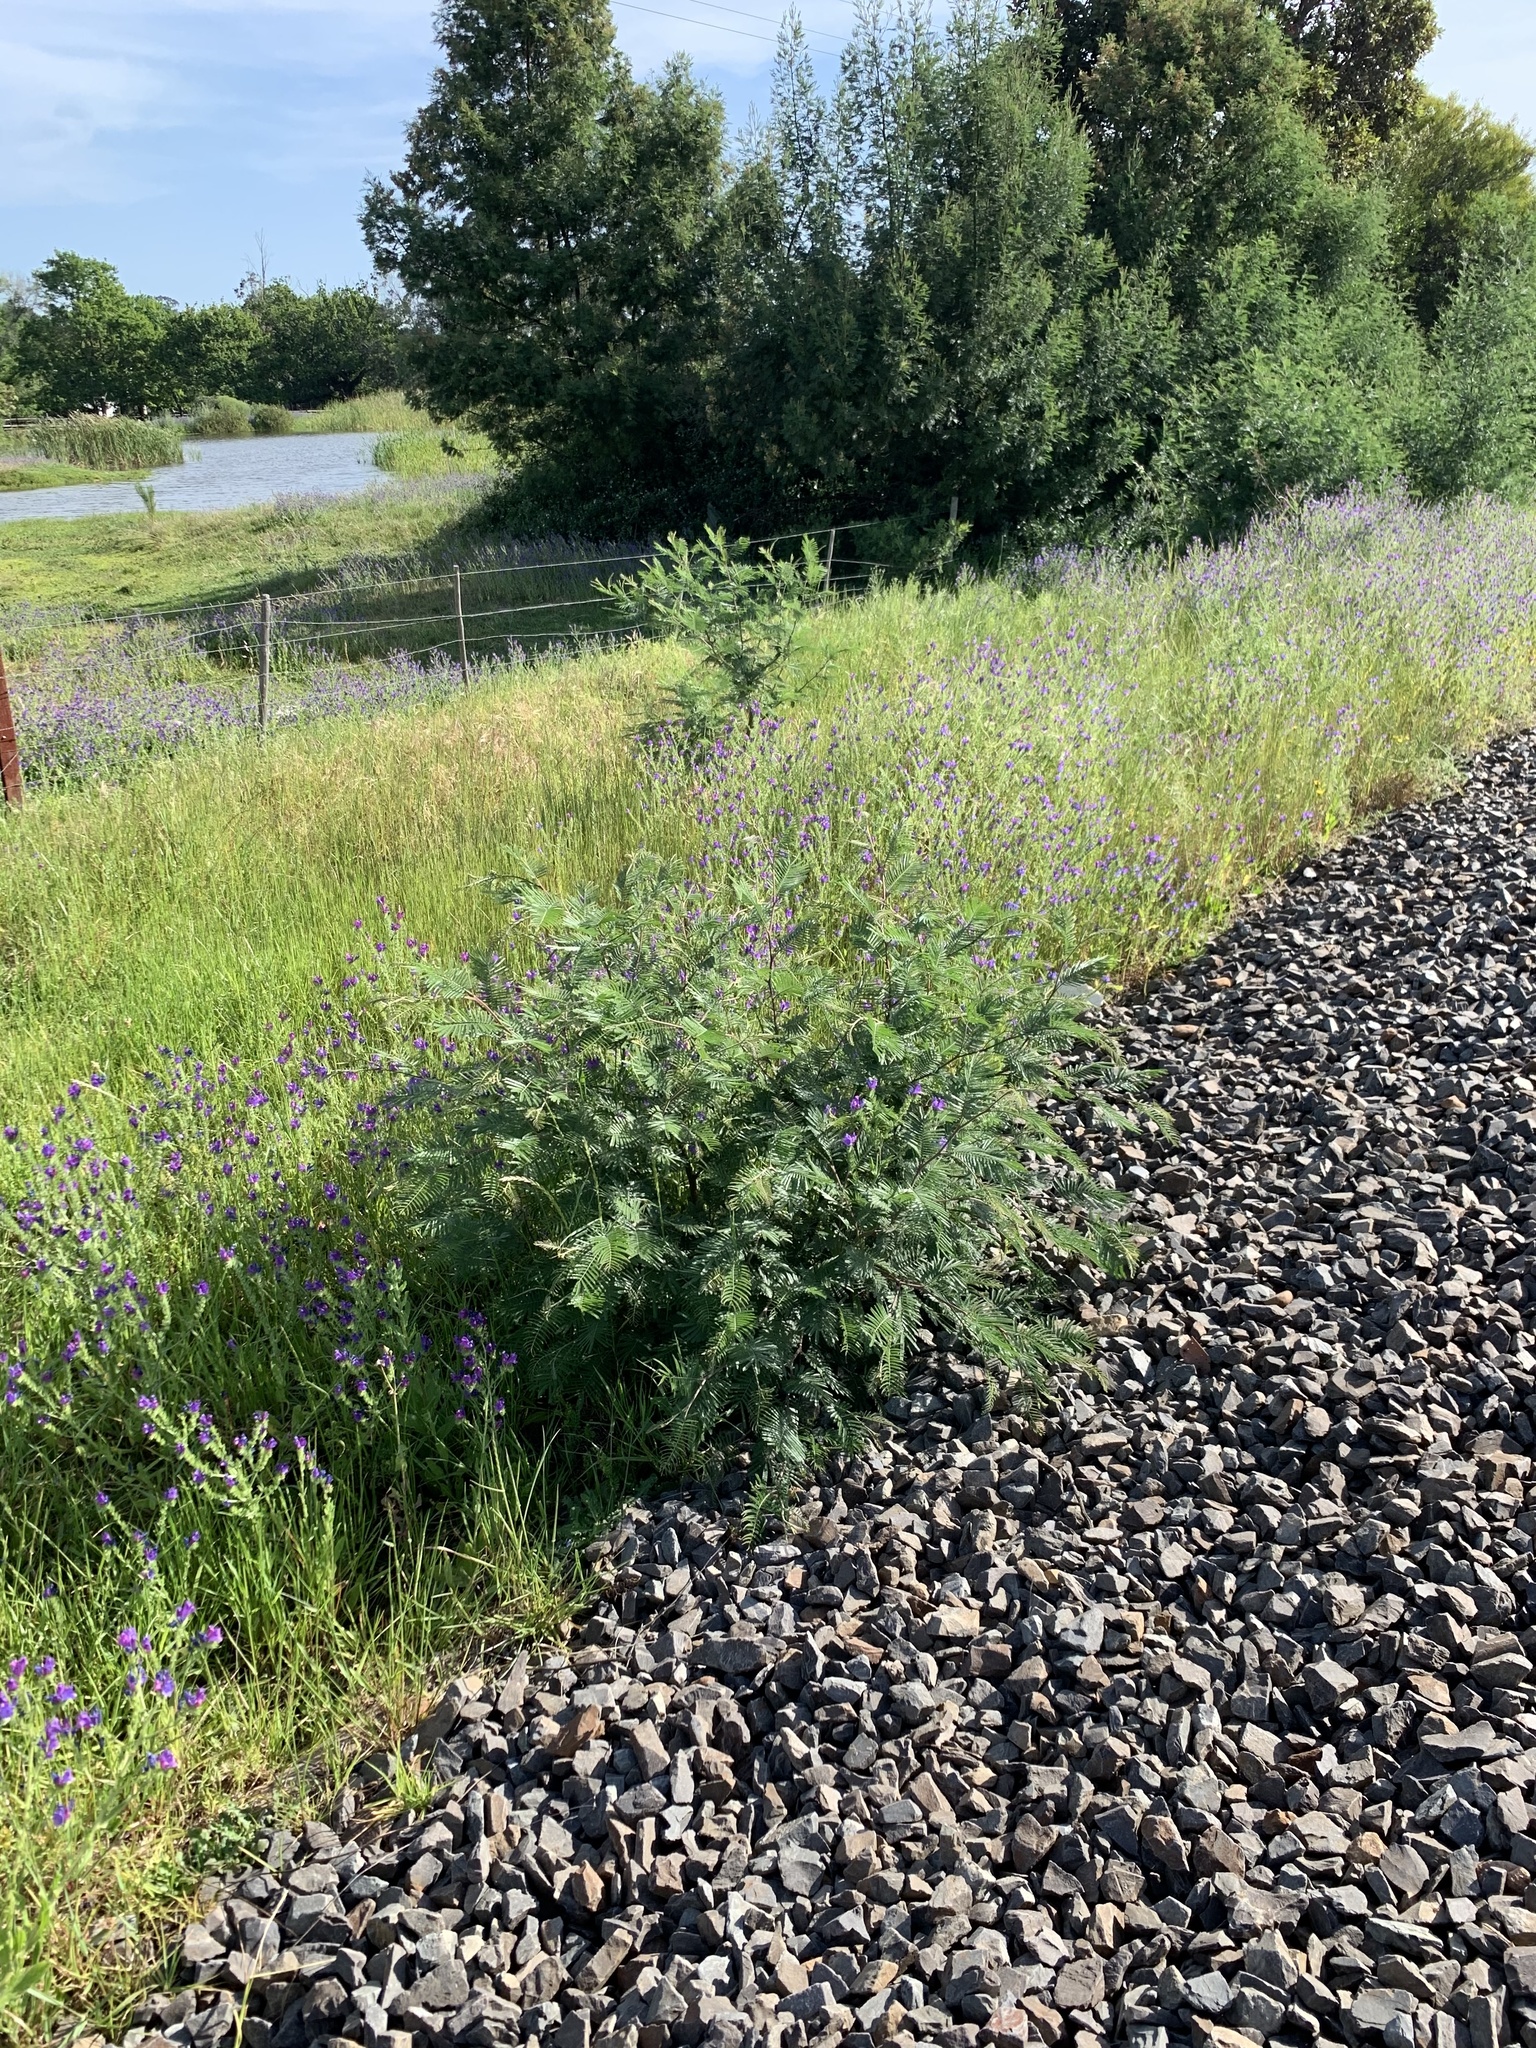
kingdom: Plantae
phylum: Tracheophyta
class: Magnoliopsida
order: Fabales
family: Fabaceae
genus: Acacia
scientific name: Acacia mearnsii
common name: Black wattle
